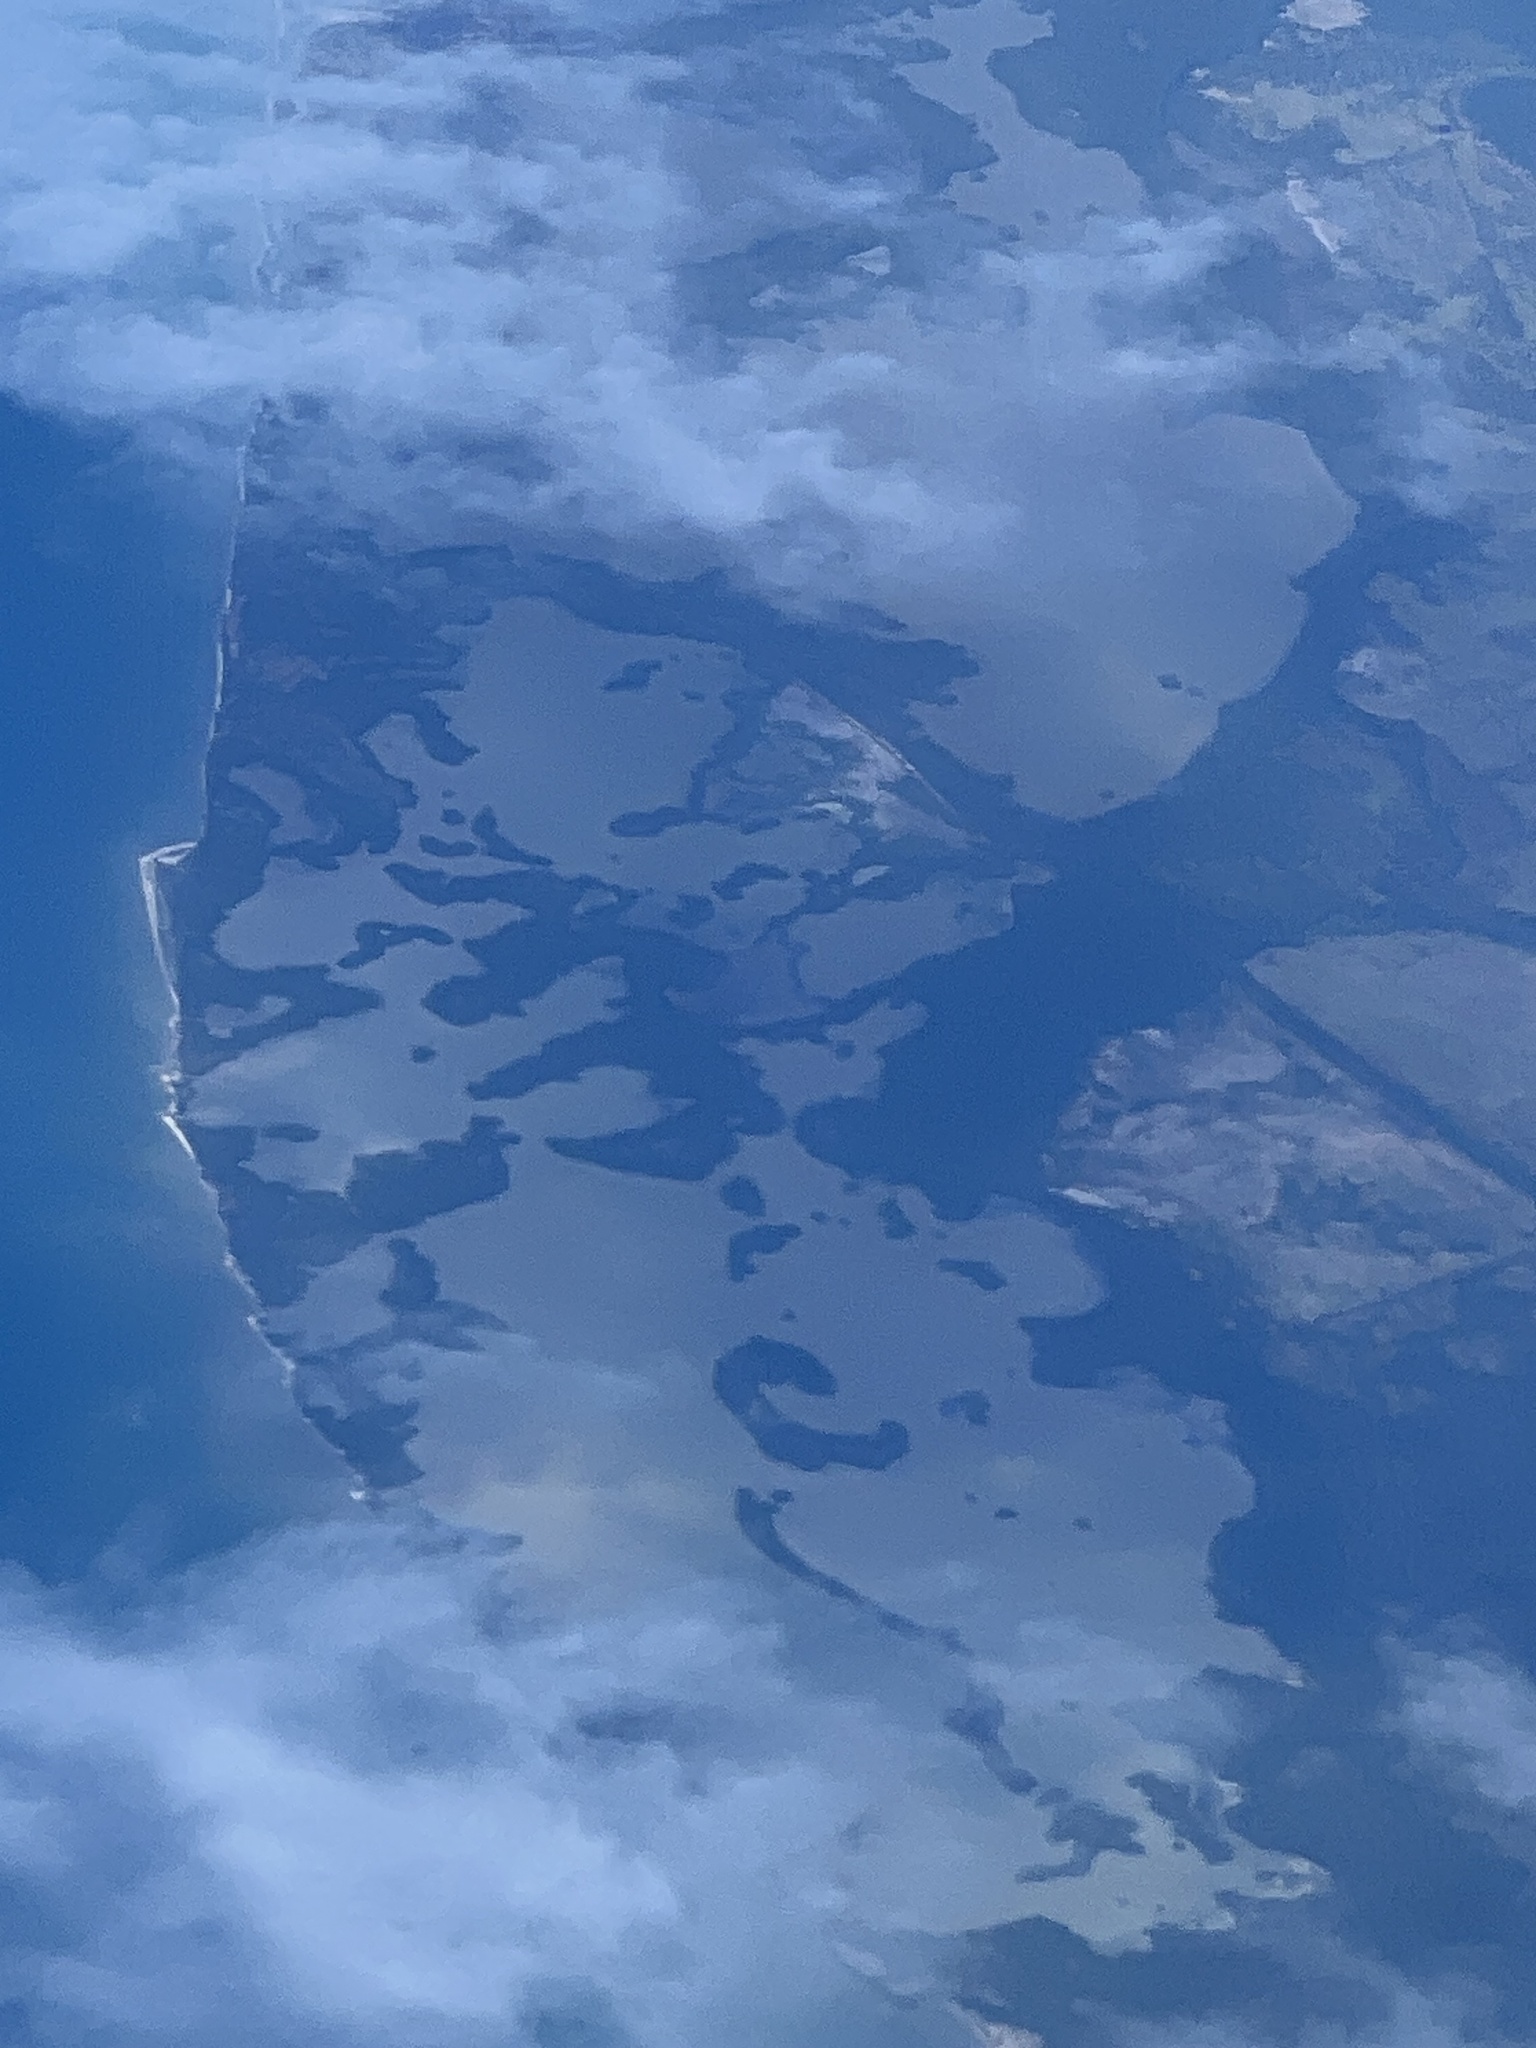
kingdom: Plantae
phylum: Tracheophyta
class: Magnoliopsida
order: Malpighiales
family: Rhizophoraceae
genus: Rhizophora
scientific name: Rhizophora mangle
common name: Red mangrove
